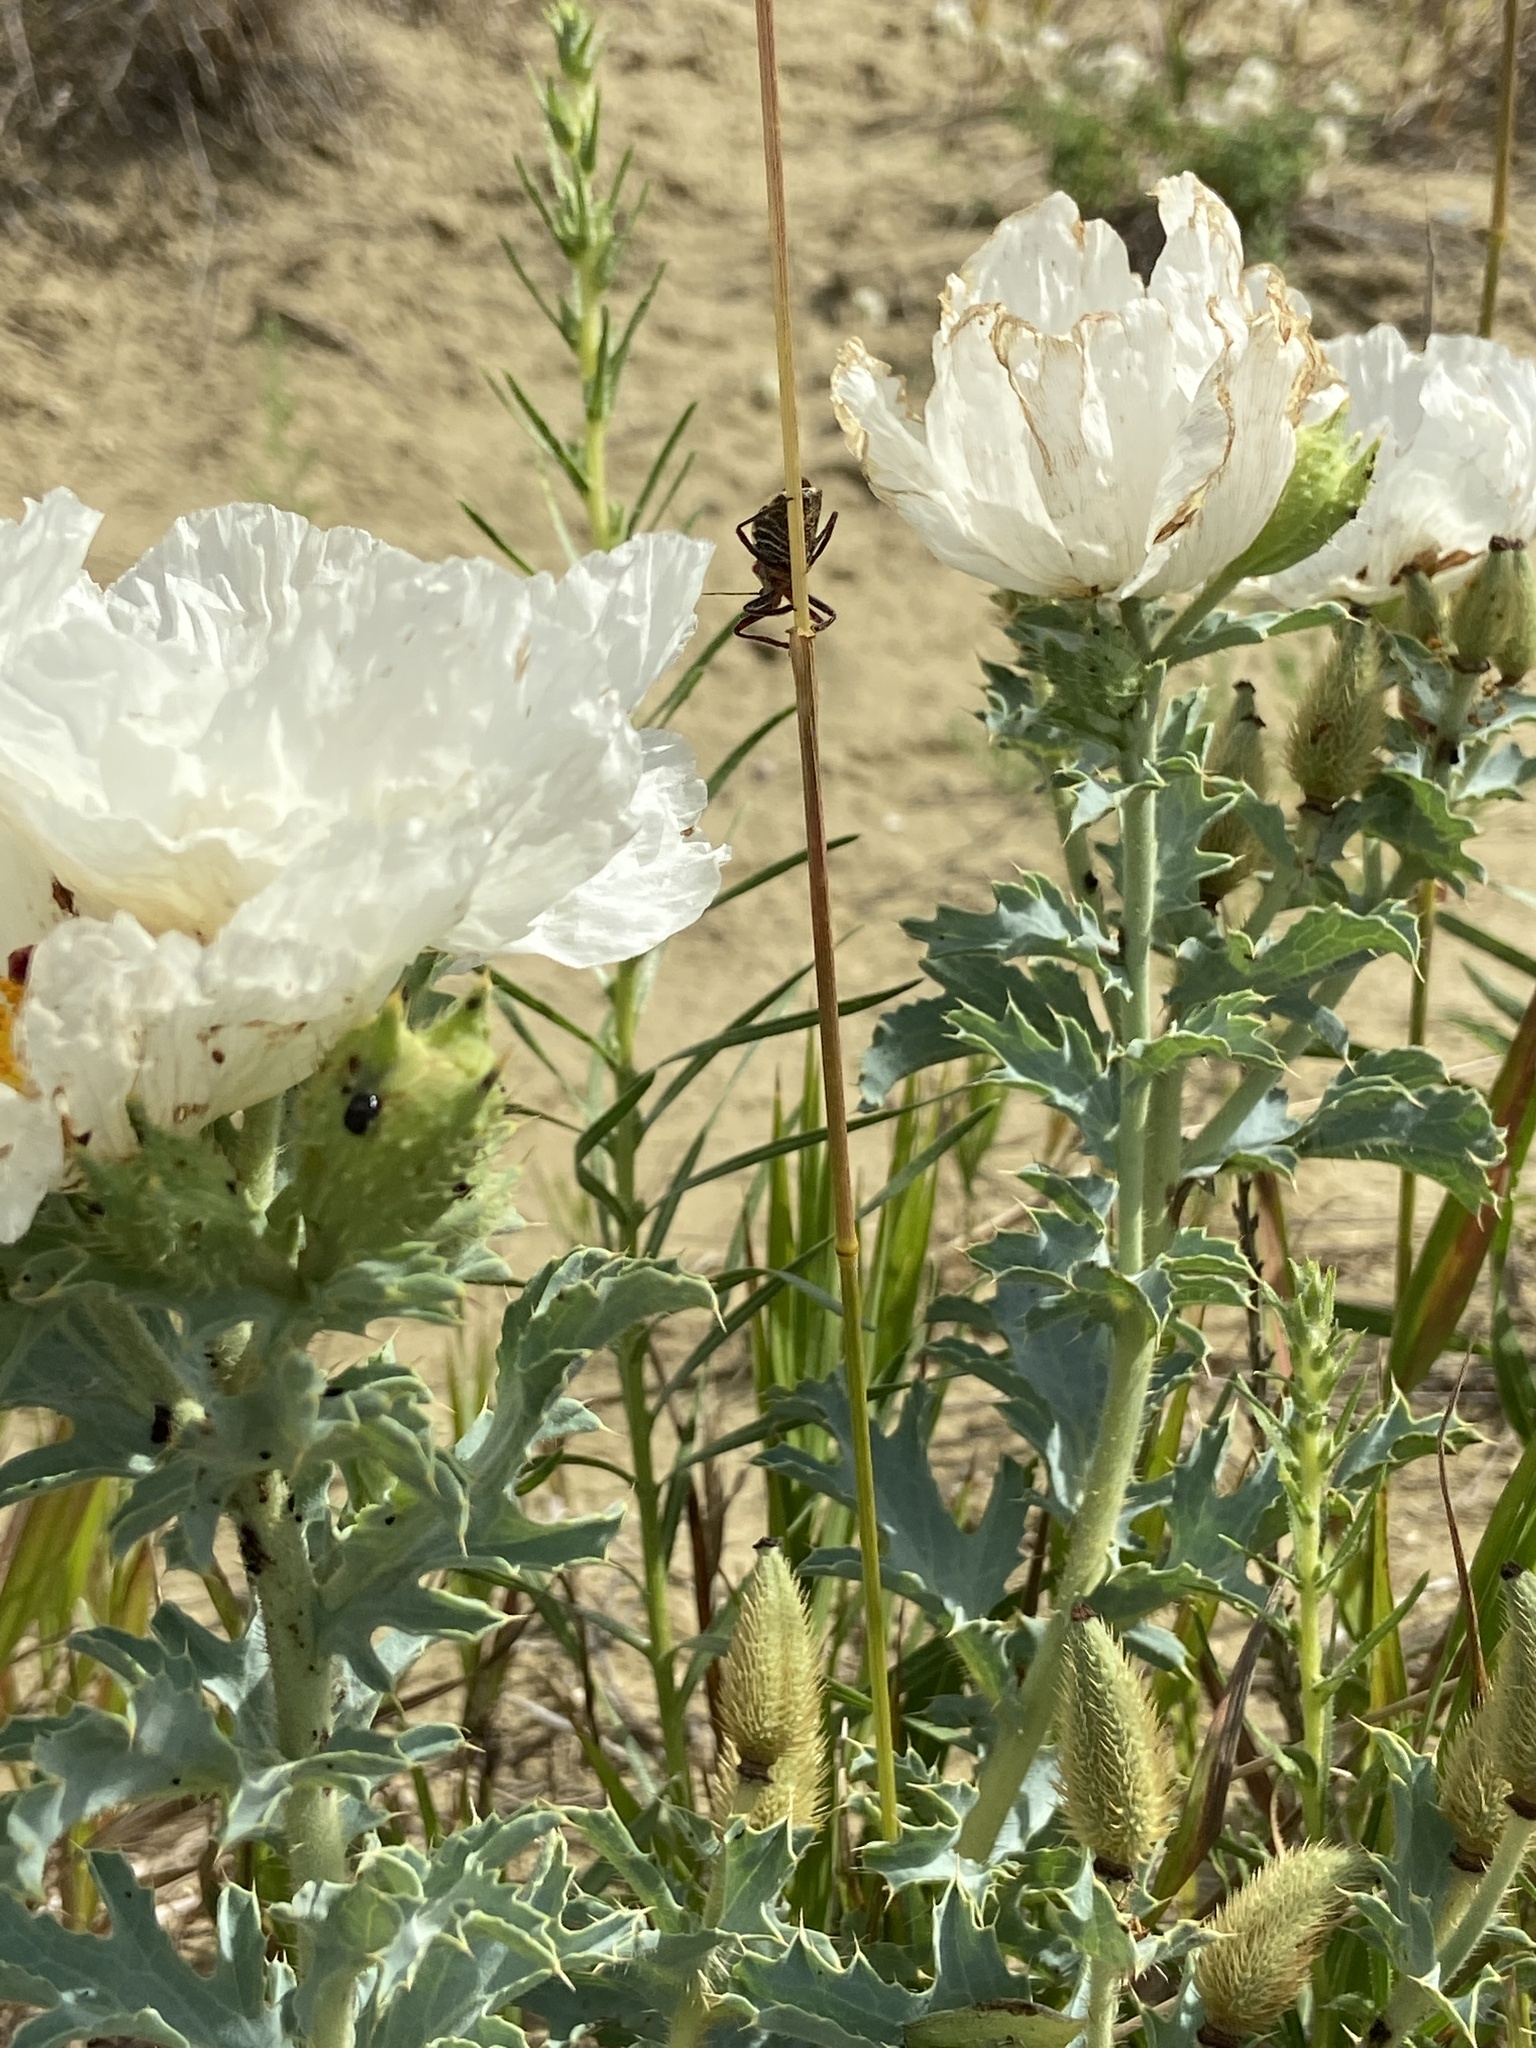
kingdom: Plantae
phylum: Tracheophyta
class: Magnoliopsida
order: Ranunculales
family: Papaveraceae
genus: Argemone
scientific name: Argemone polyanthemos
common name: Plains prickly-poppy
